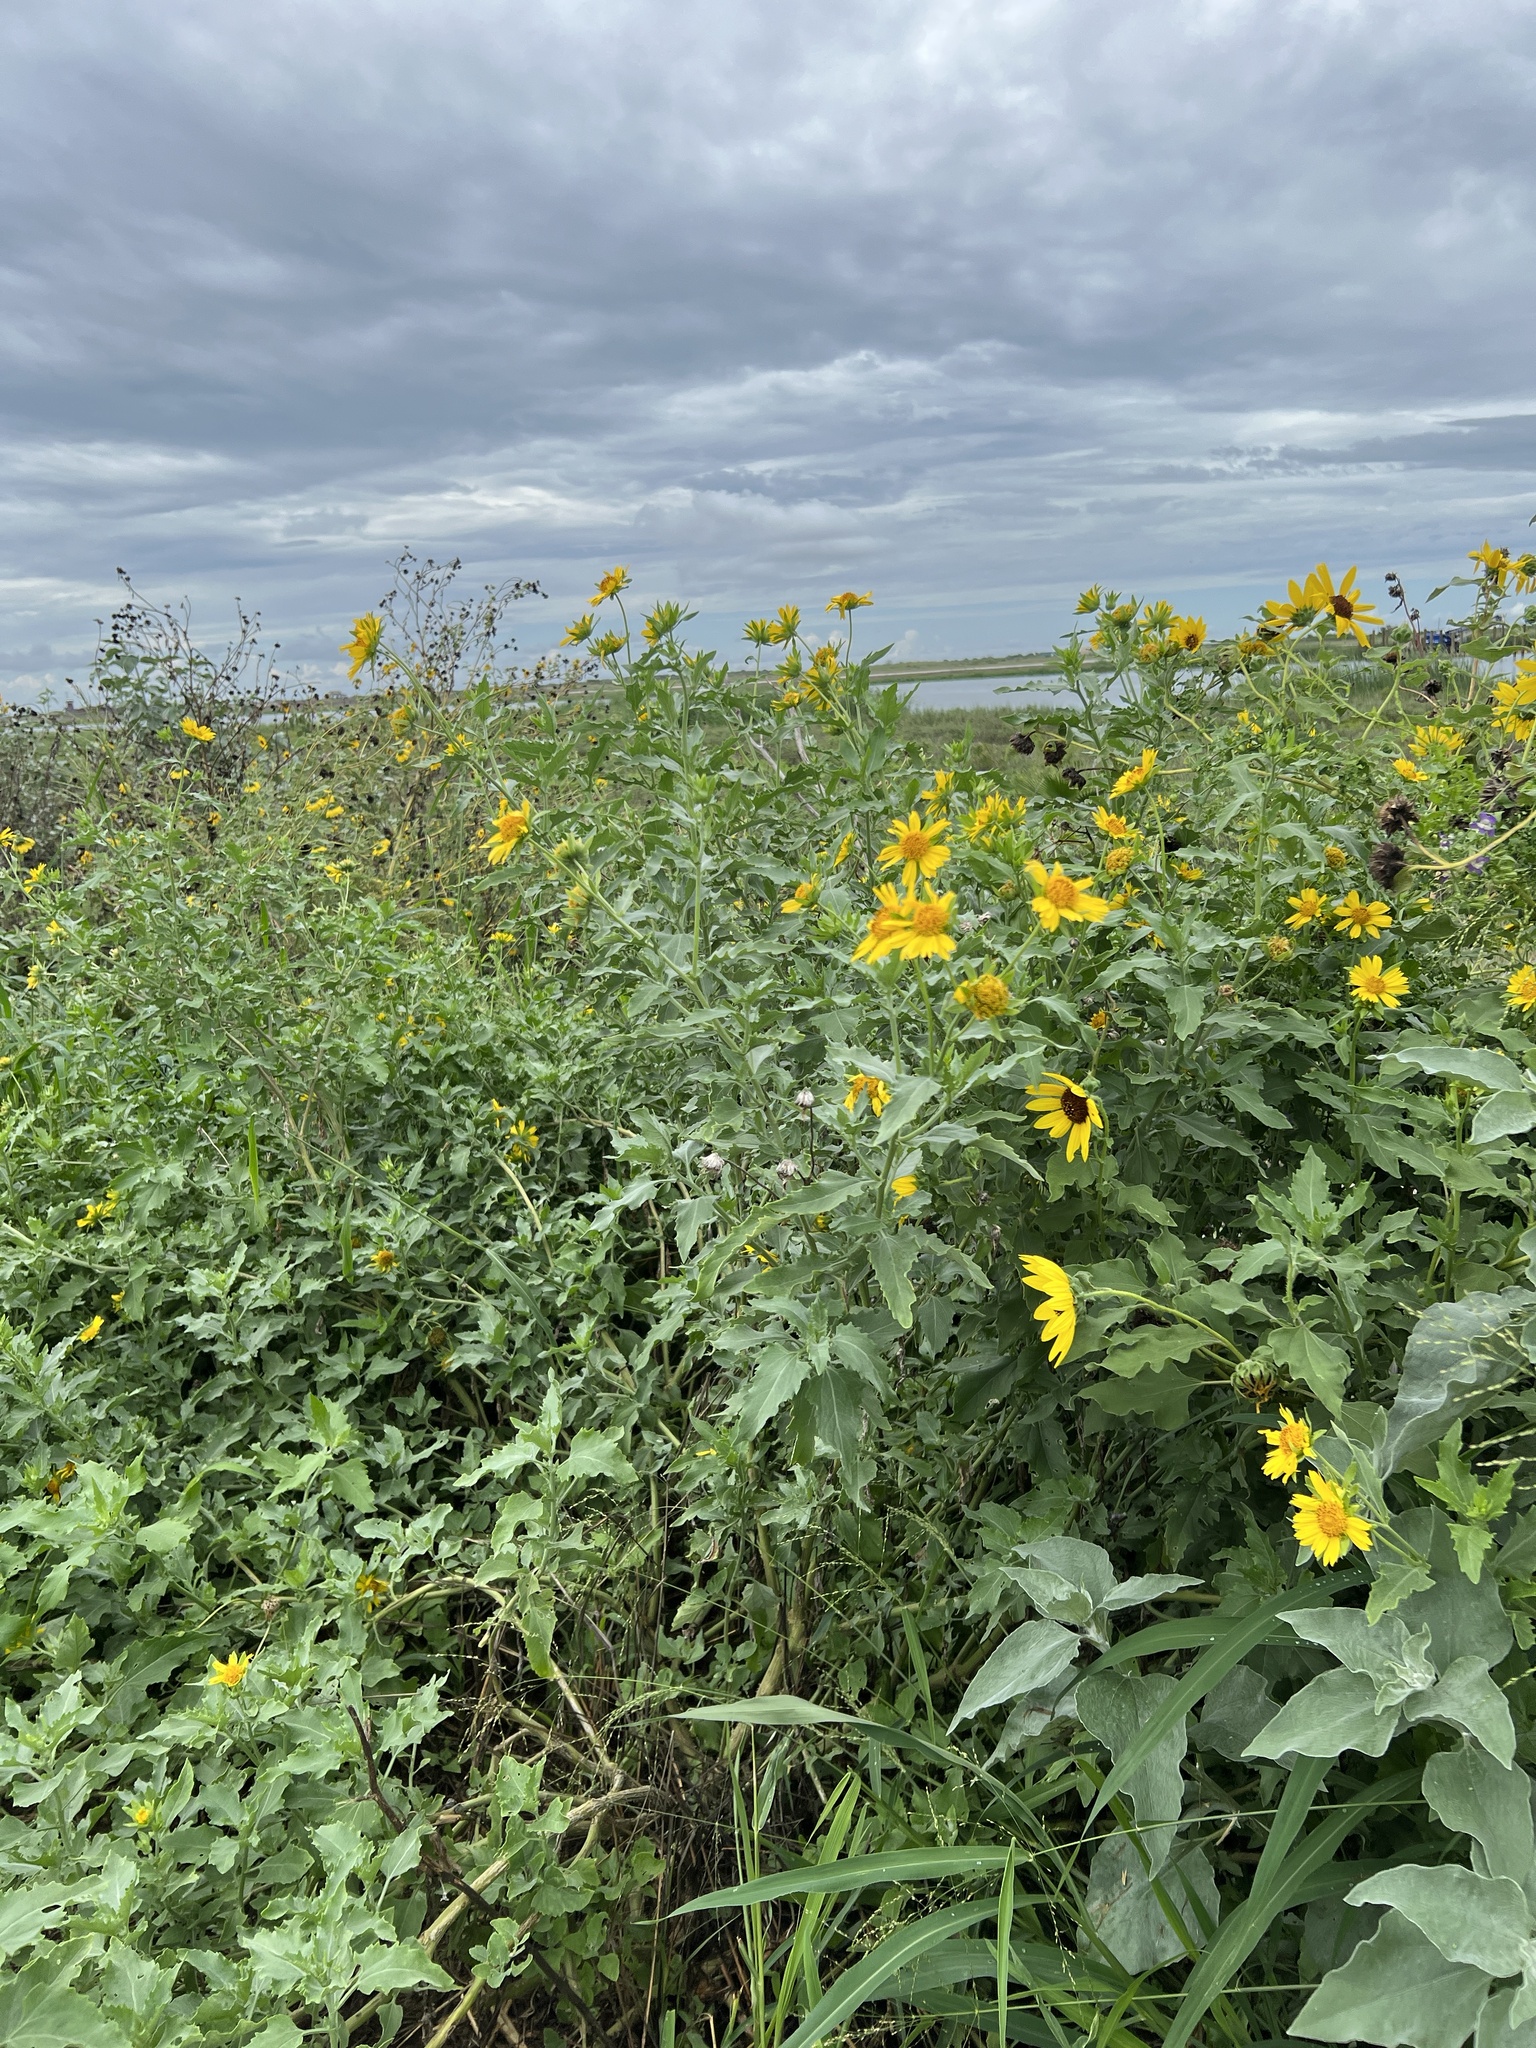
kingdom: Plantae
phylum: Tracheophyta
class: Magnoliopsida
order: Asterales
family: Asteraceae
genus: Verbesina
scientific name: Verbesina encelioides
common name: Golden crownbeard
